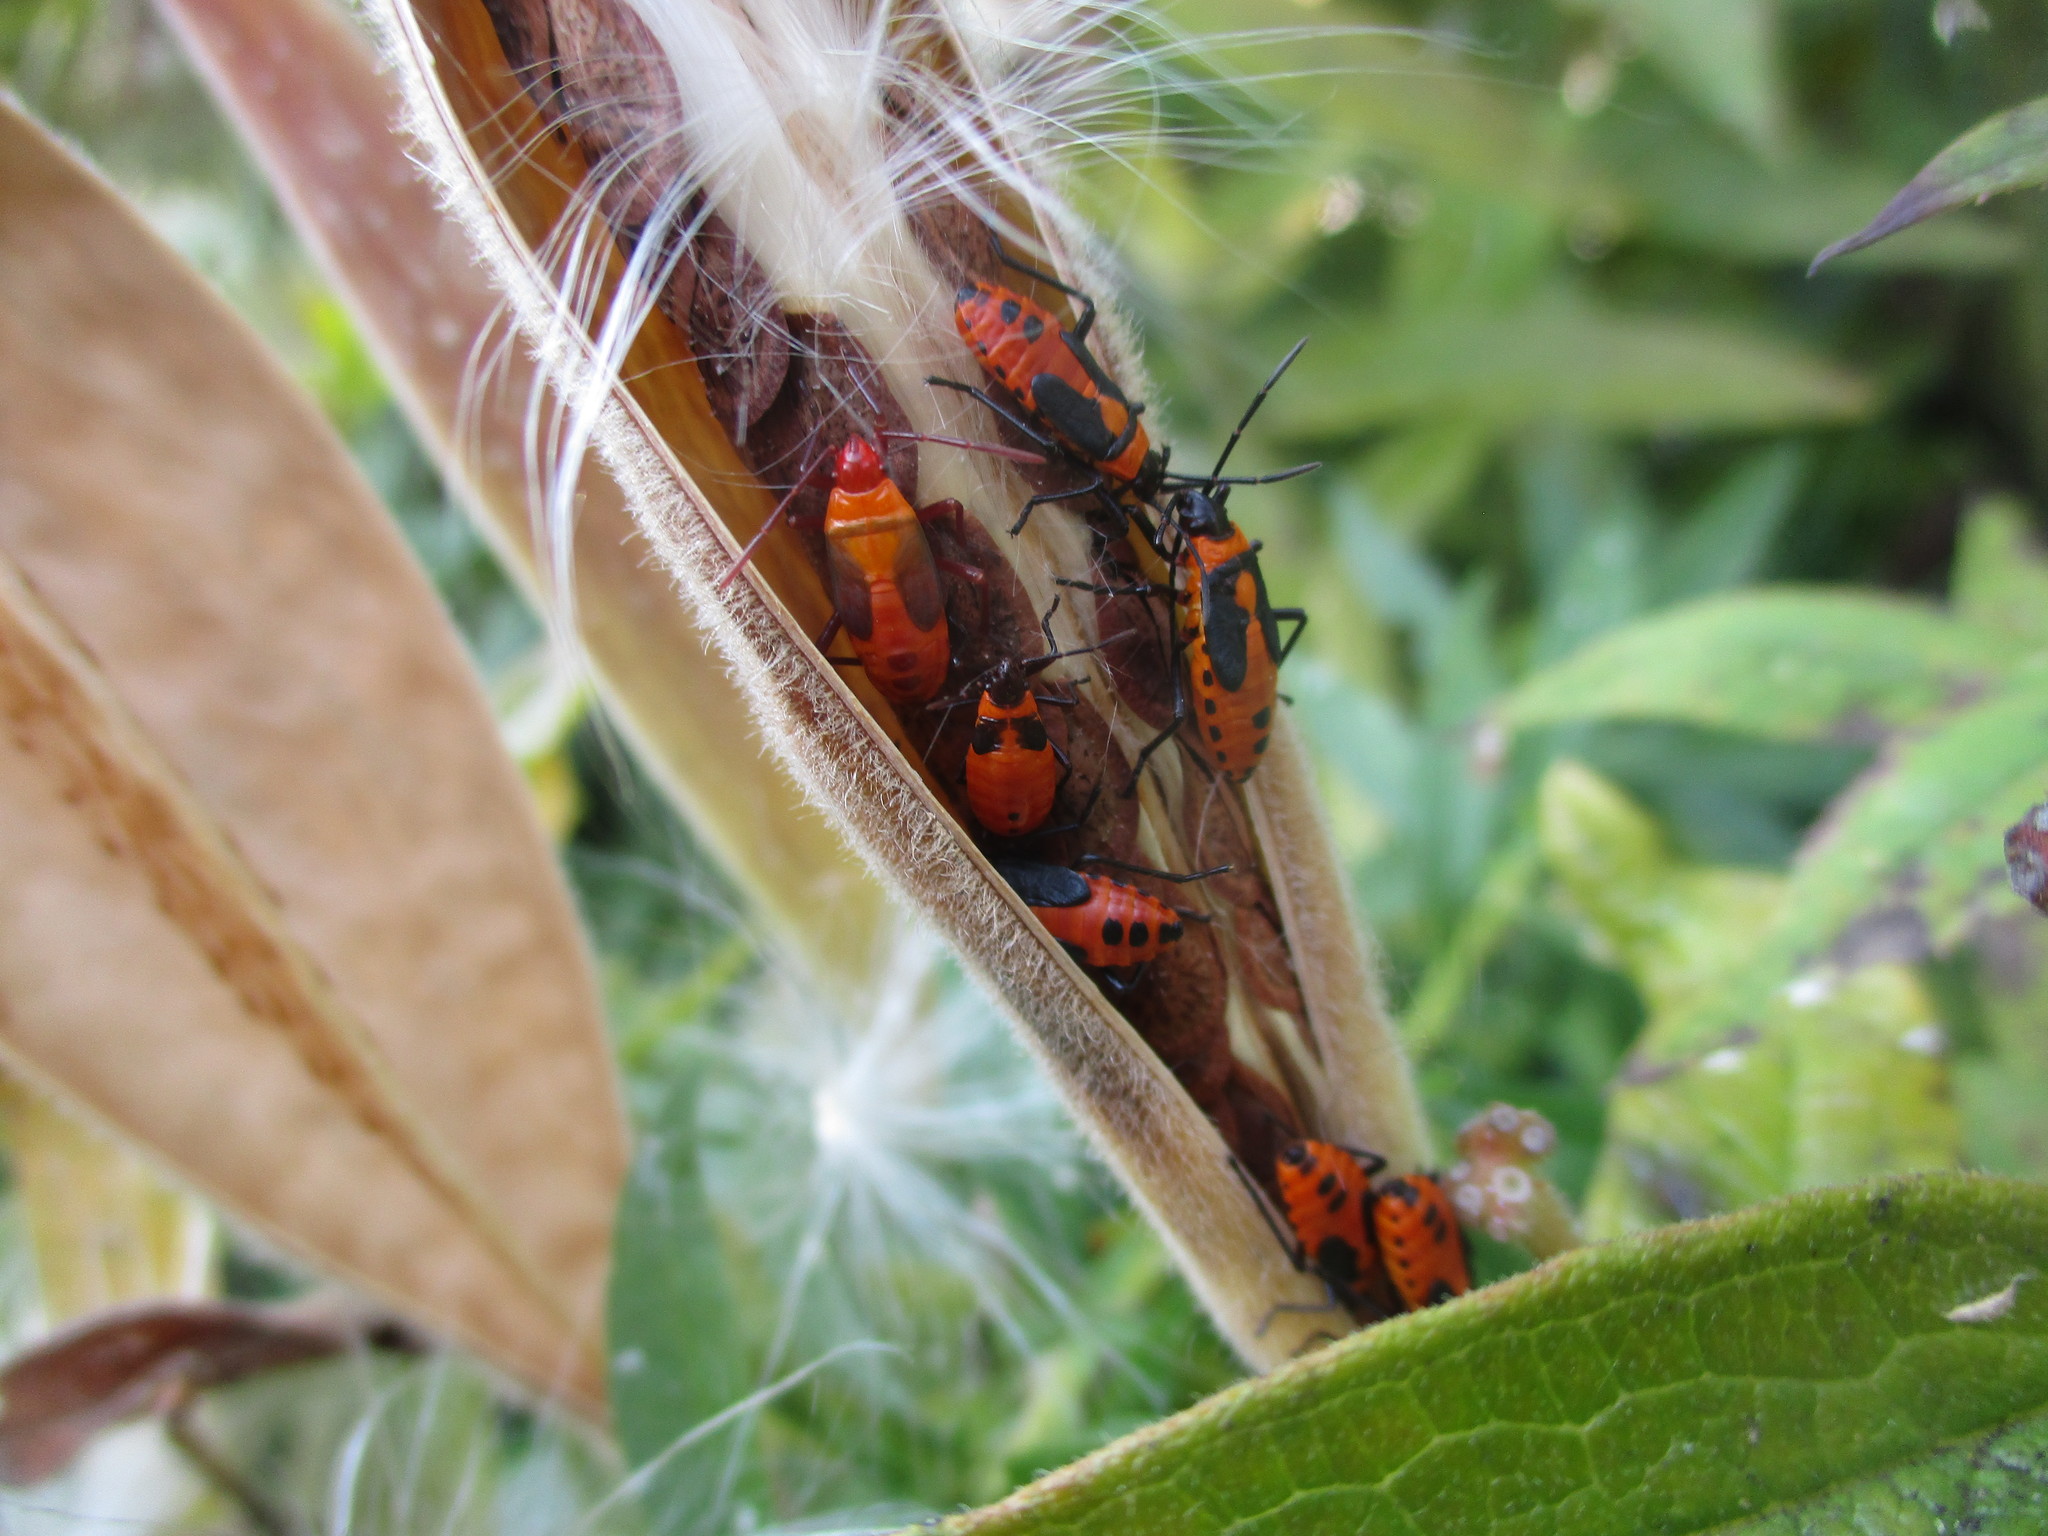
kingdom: Animalia
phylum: Arthropoda
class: Insecta
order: Hemiptera
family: Lygaeidae
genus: Oncopeltus
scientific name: Oncopeltus fasciatus
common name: Large milkweed bug
